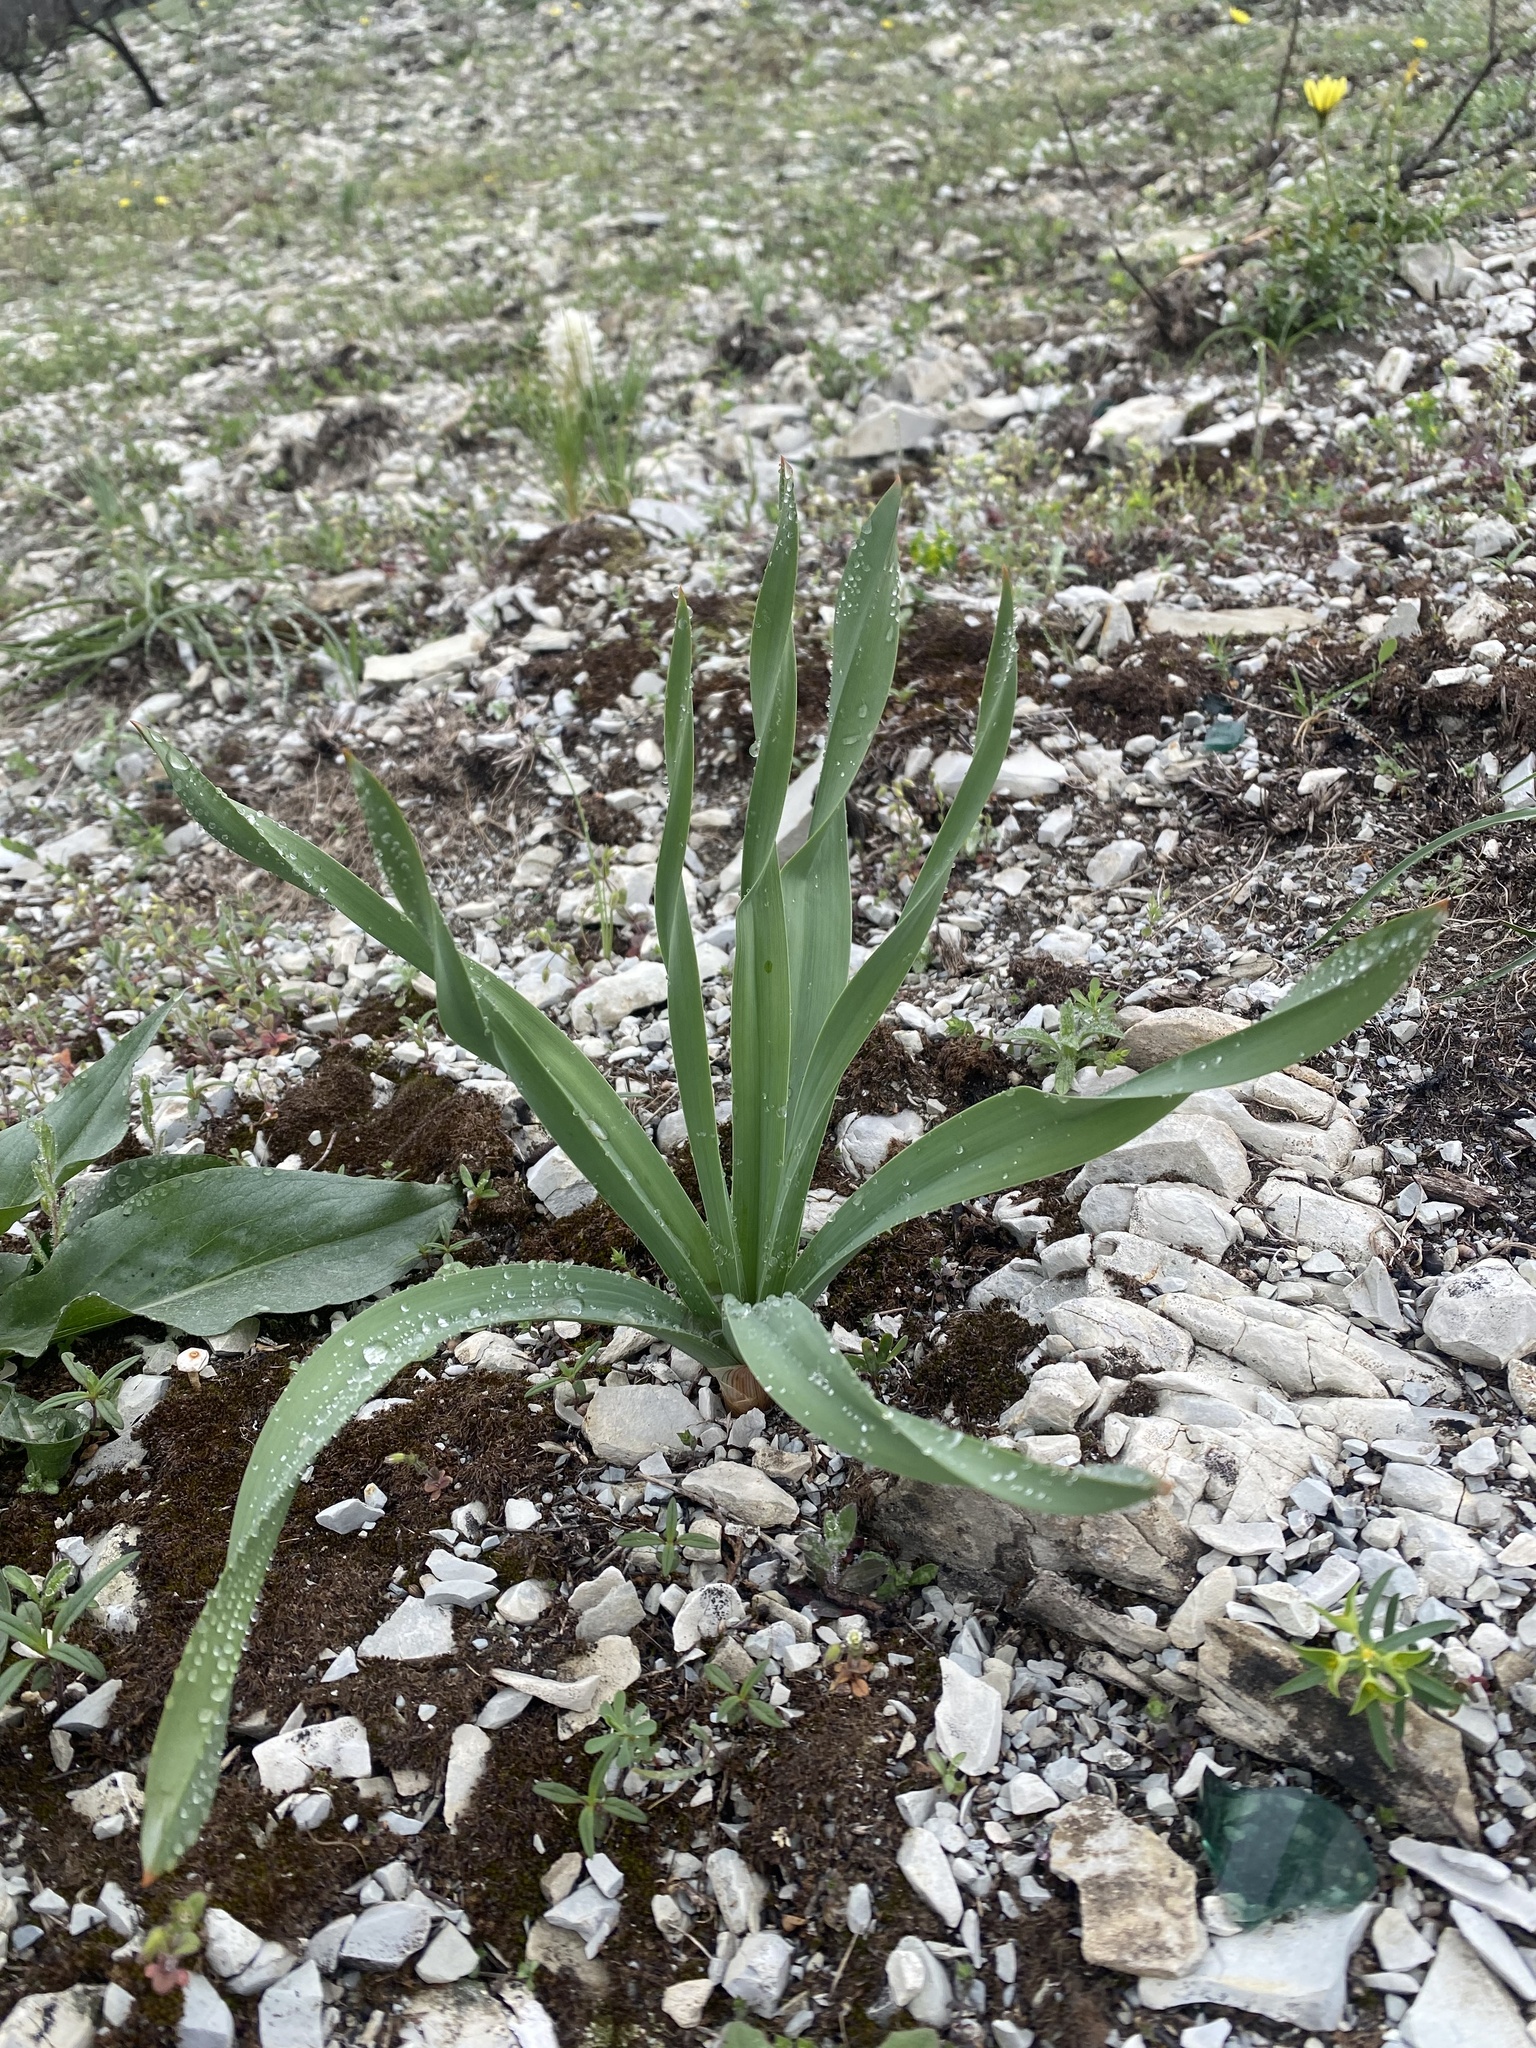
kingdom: Plantae
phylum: Tracheophyta
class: Liliopsida
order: Asparagales
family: Asphodelaceae
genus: Eremurus
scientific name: Eremurus spectabilis
